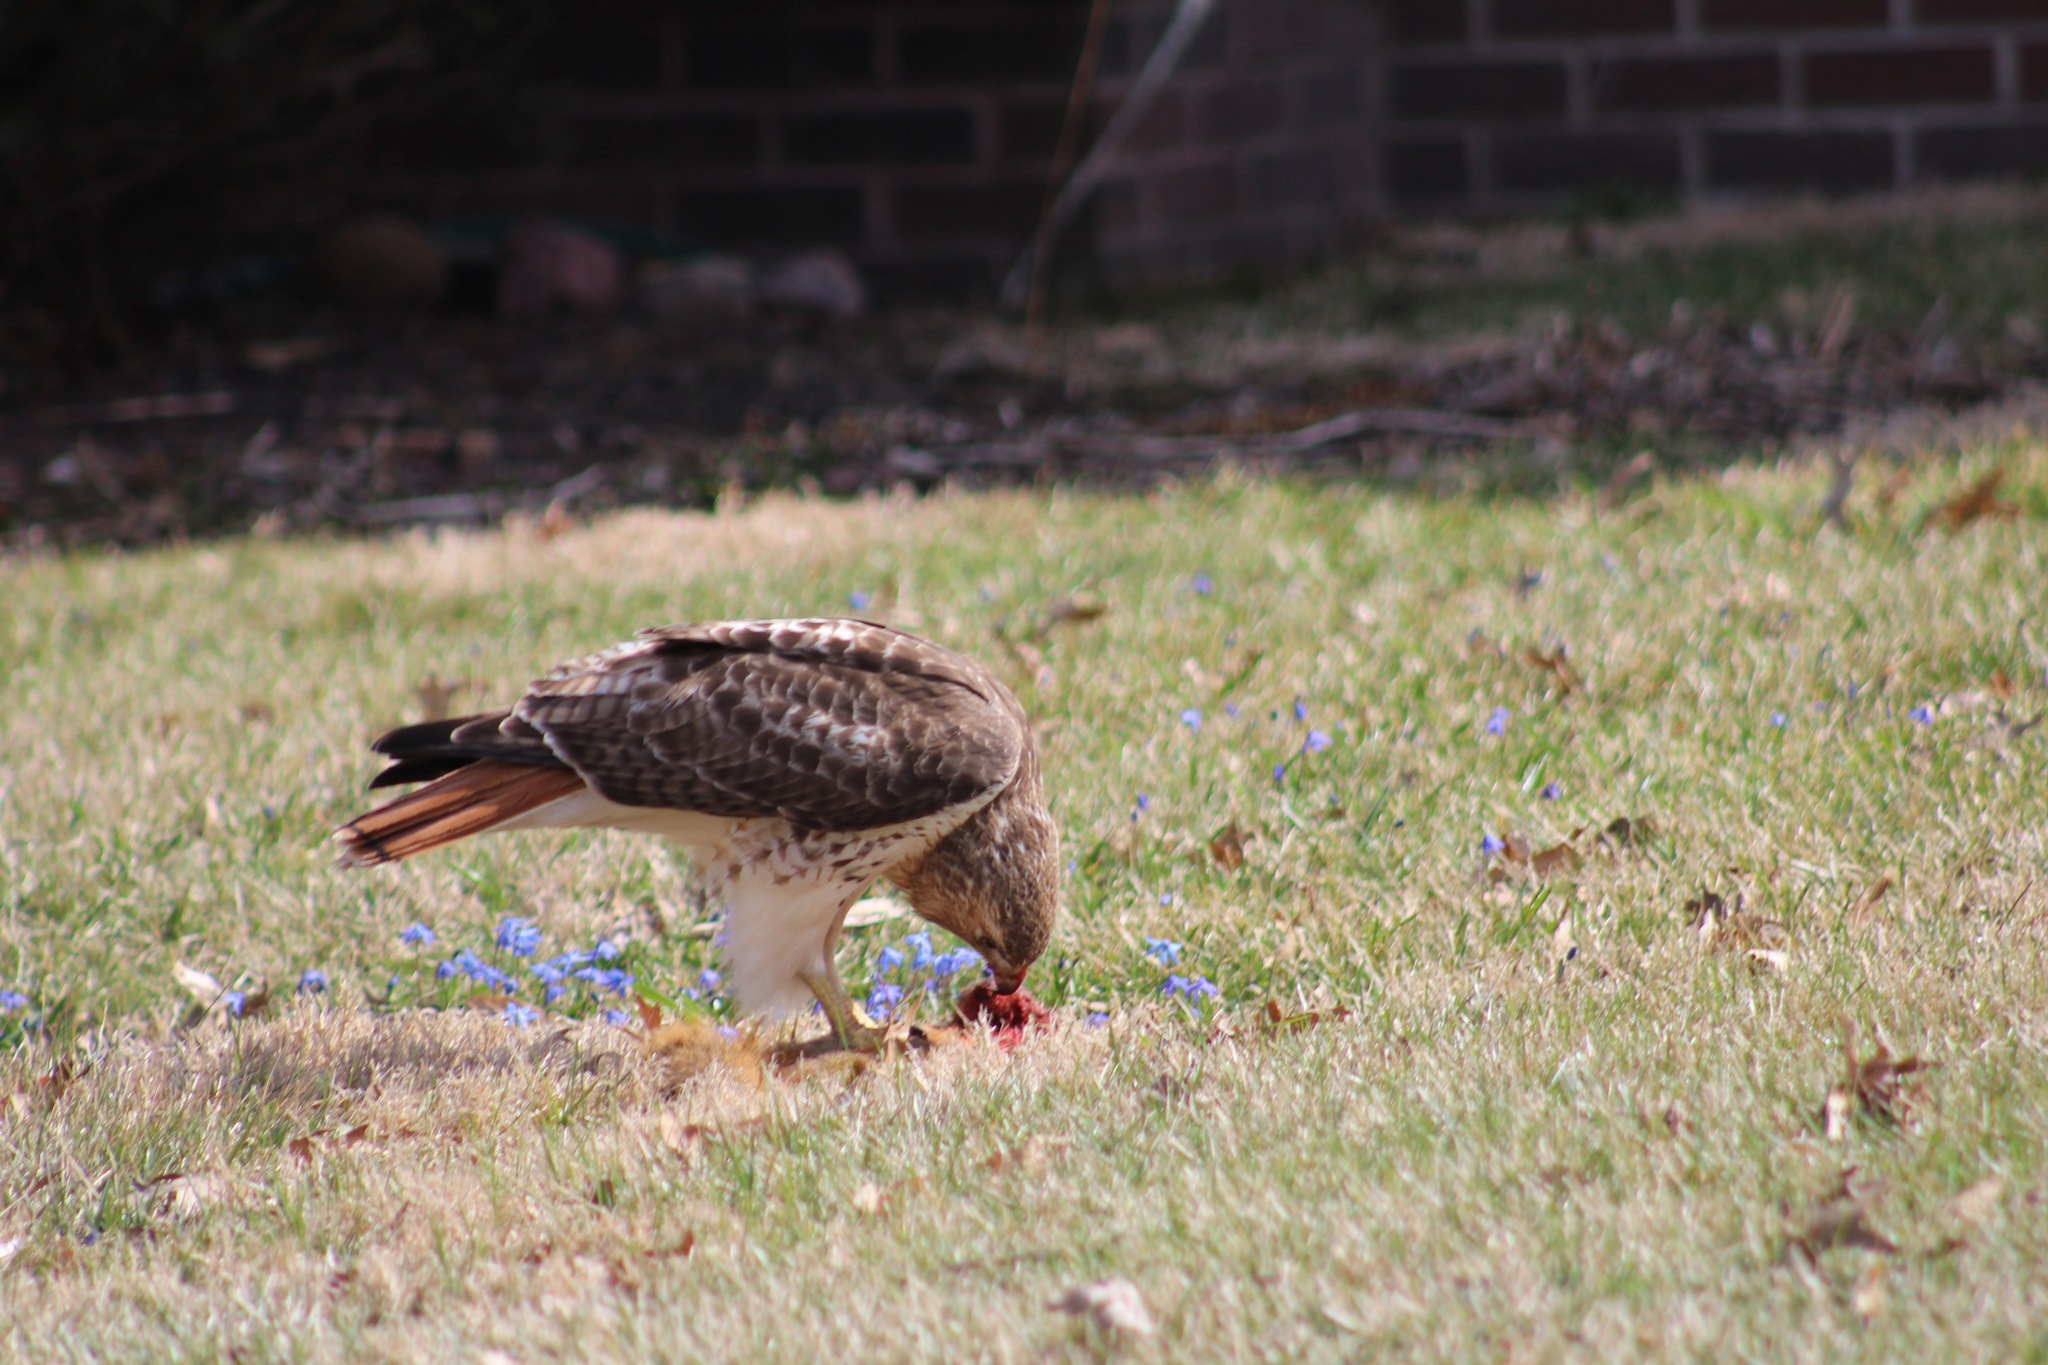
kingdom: Animalia
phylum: Chordata
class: Aves
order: Accipitriformes
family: Accipitridae
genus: Buteo
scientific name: Buteo jamaicensis
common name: Red-tailed hawk
